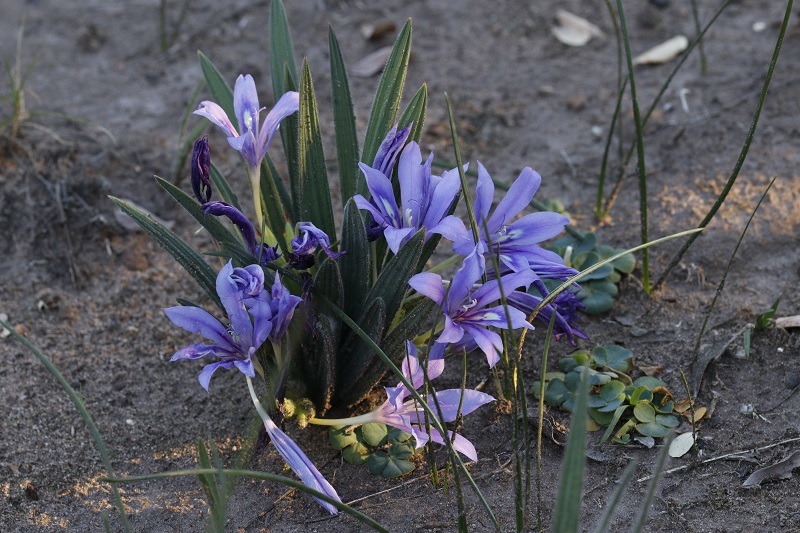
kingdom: Plantae
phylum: Tracheophyta
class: Liliopsida
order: Asparagales
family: Iridaceae
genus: Babiana
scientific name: Babiana sambucina
